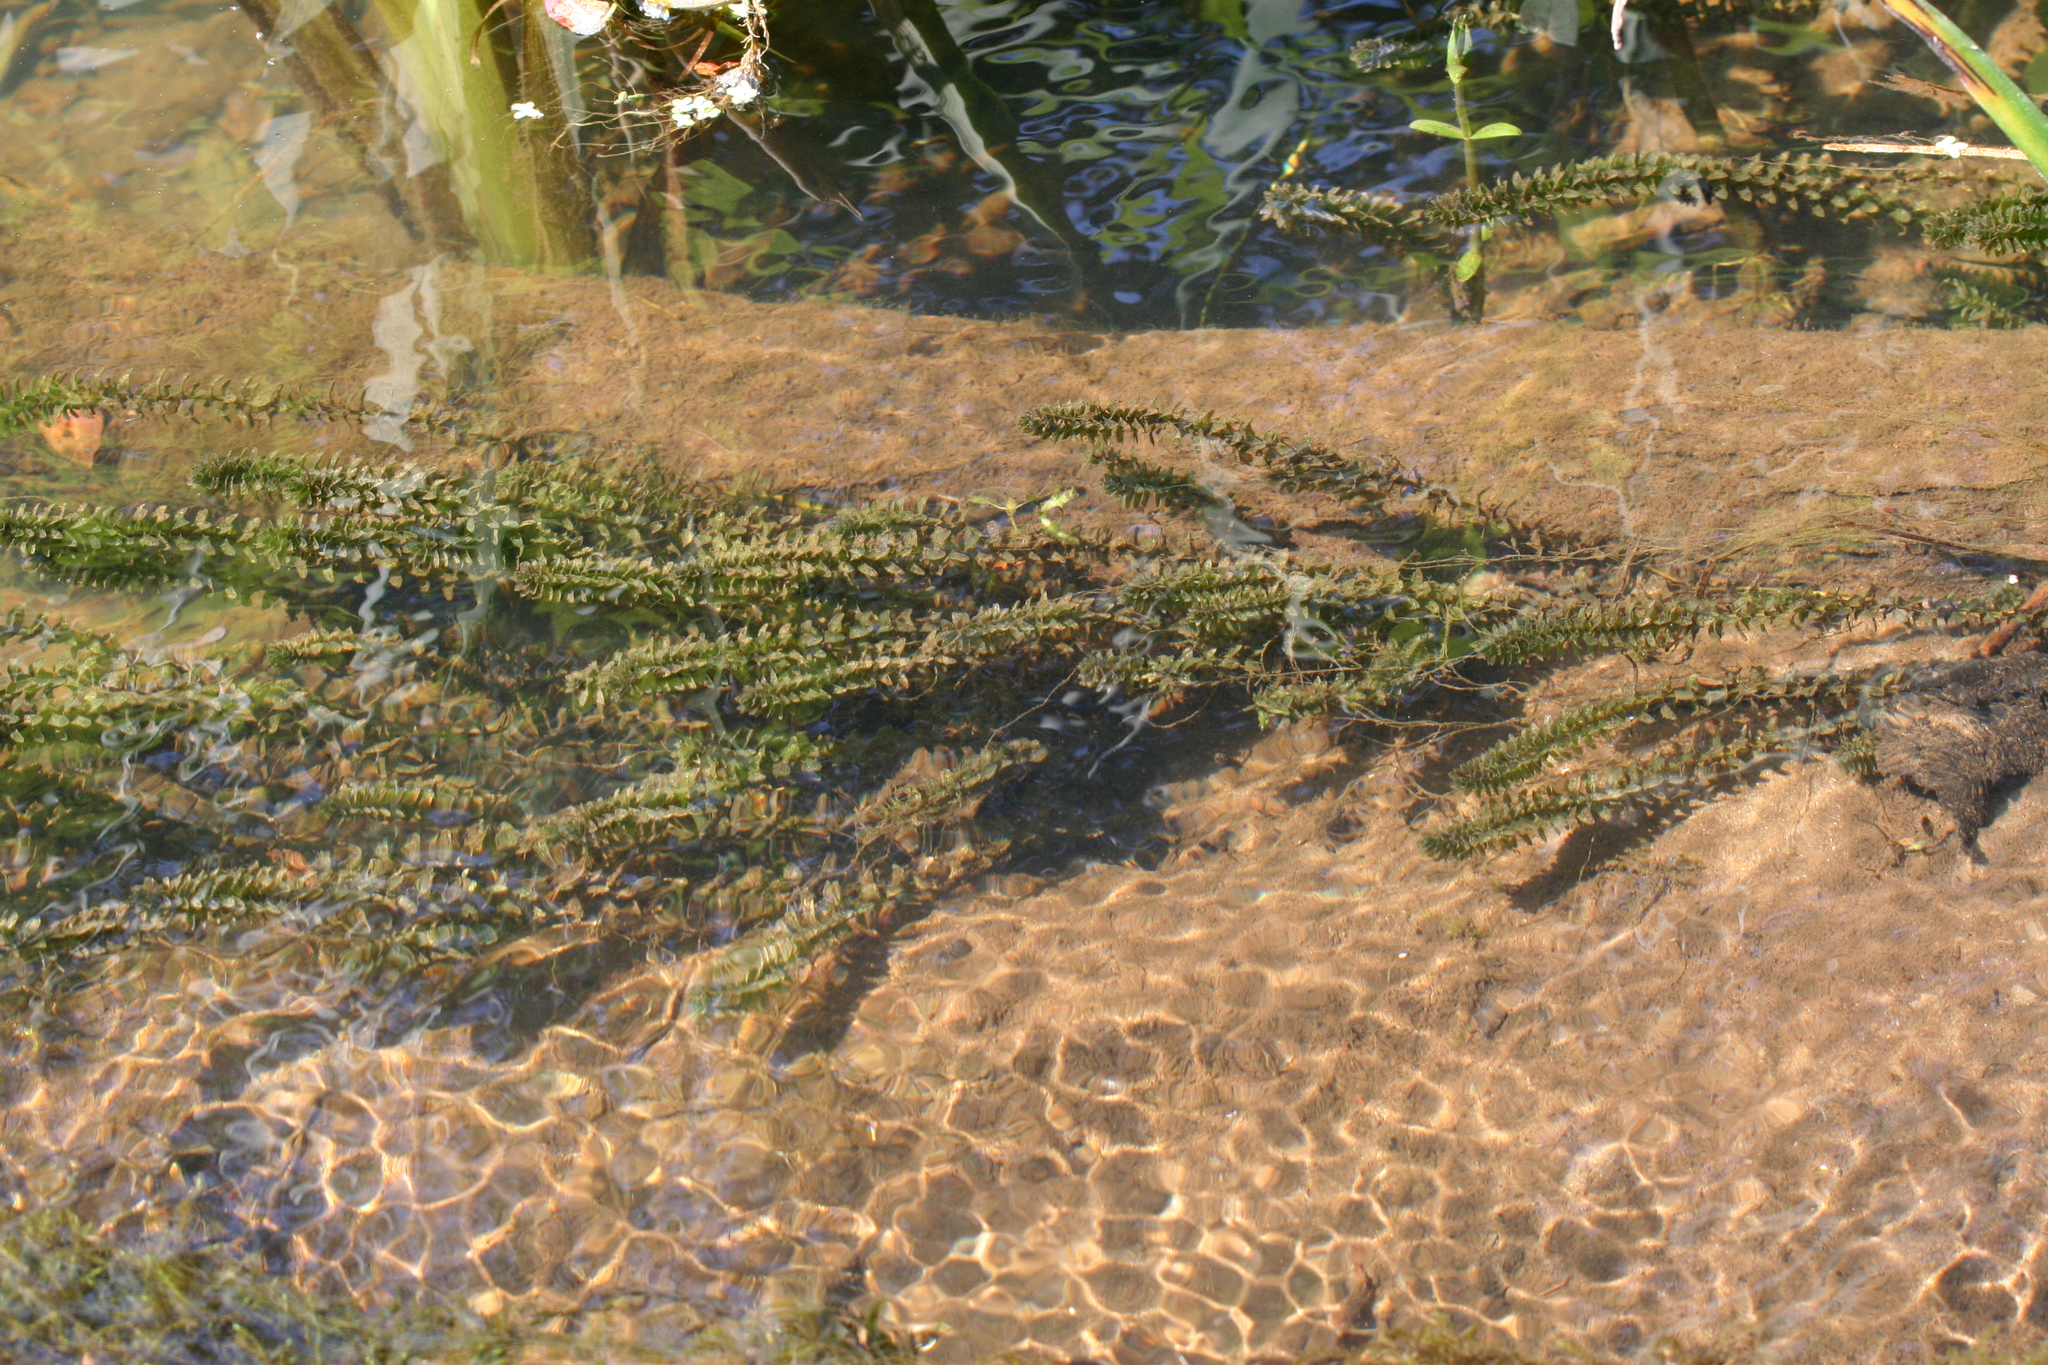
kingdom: Plantae
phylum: Tracheophyta
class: Liliopsida
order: Alismatales
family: Hydrocharitaceae
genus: Elodea
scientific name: Elodea canadensis
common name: Canadian waterweed
